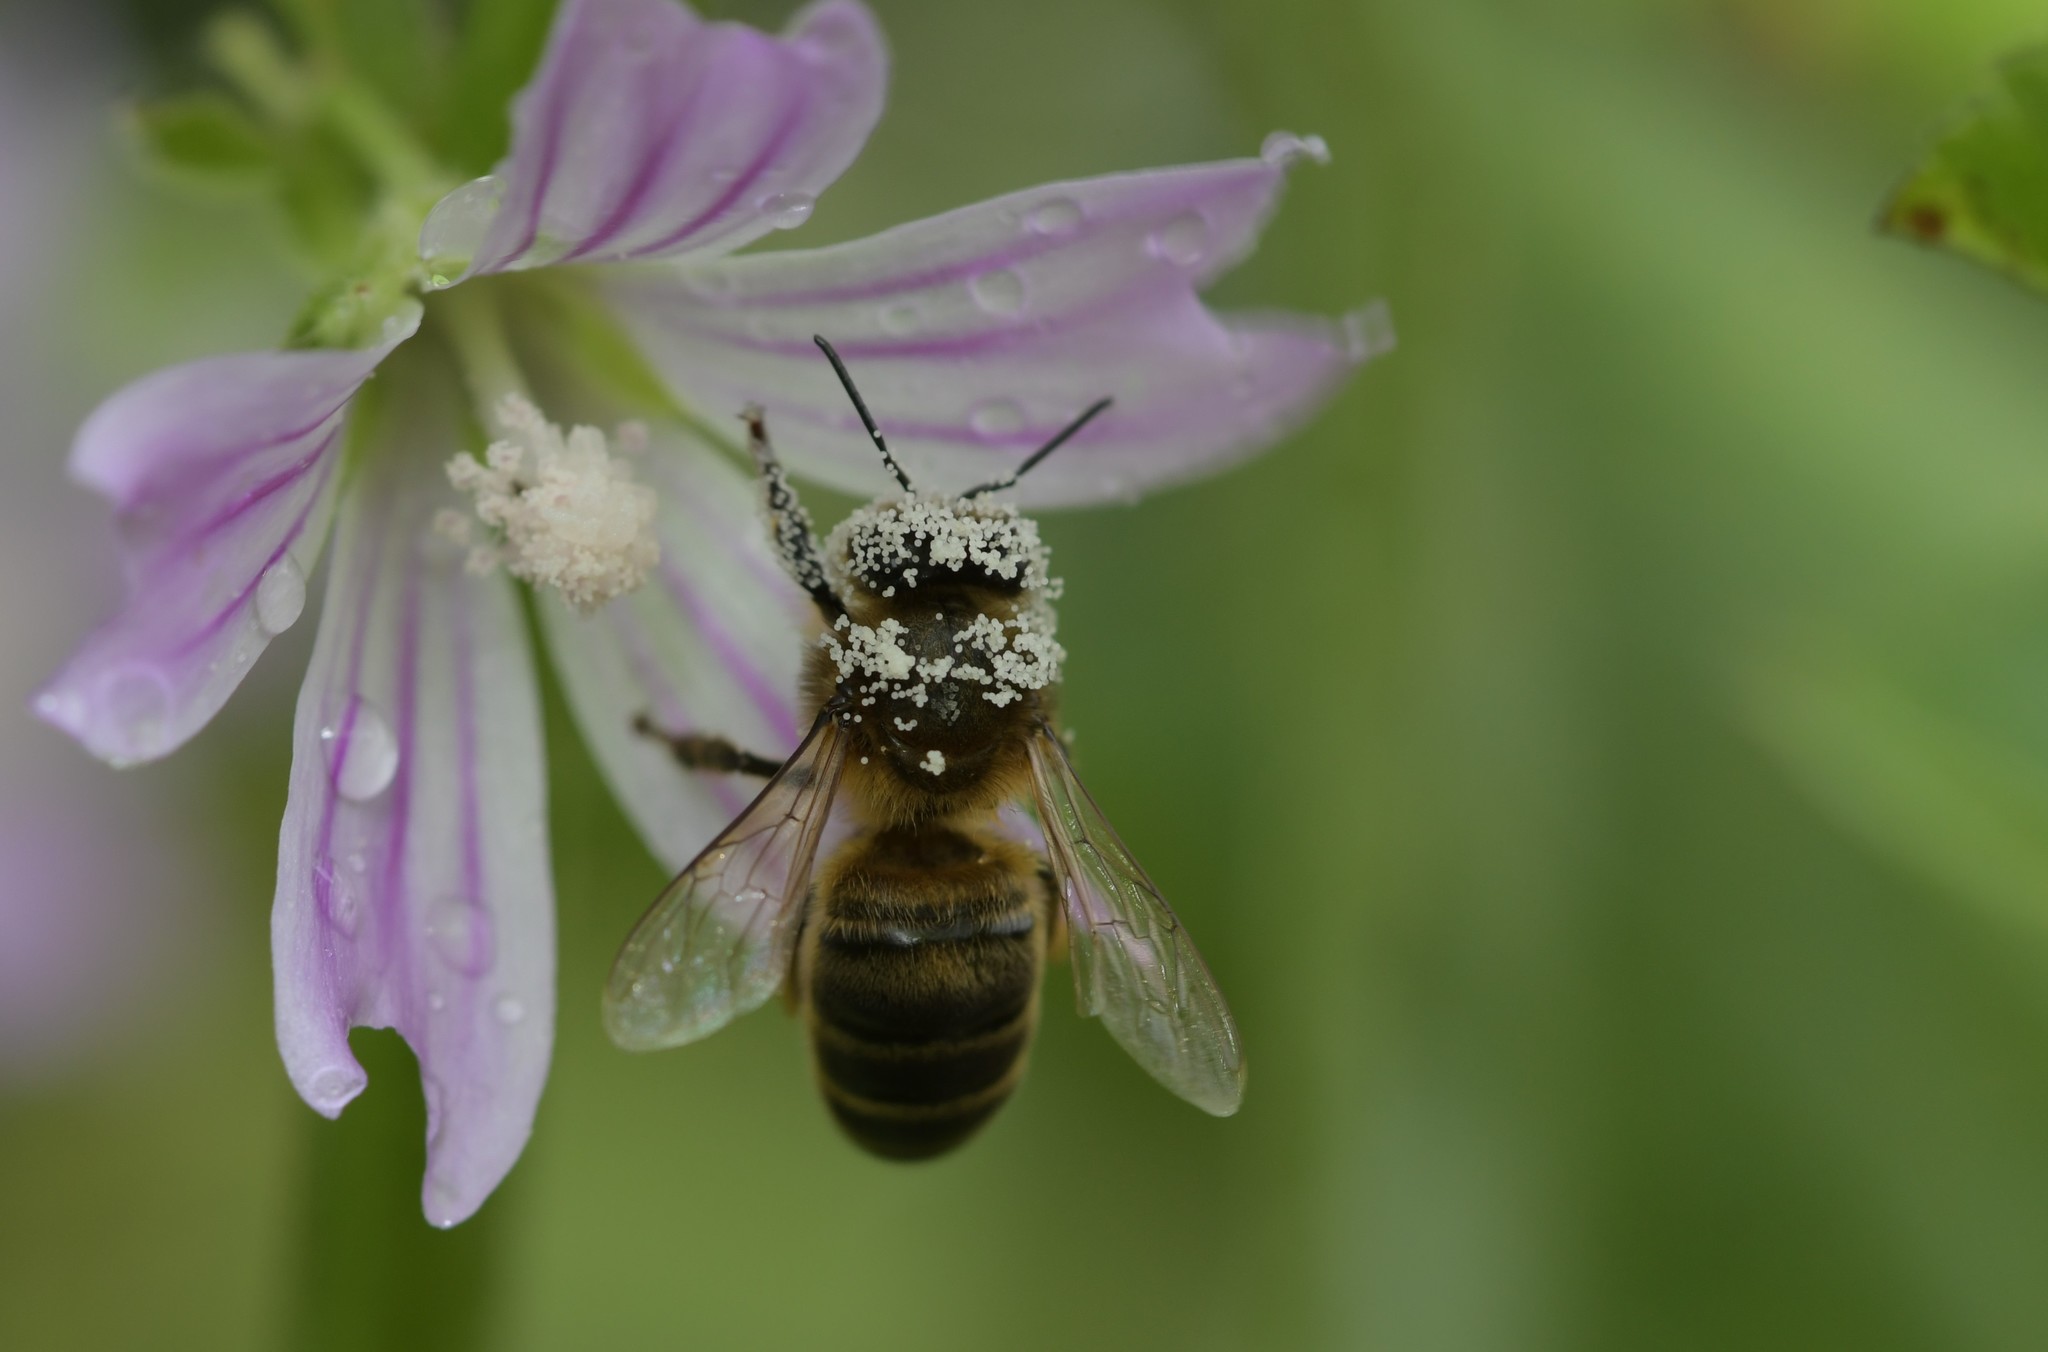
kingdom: Animalia
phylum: Arthropoda
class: Insecta
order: Hymenoptera
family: Apidae
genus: Apis
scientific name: Apis mellifera
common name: Honey bee
